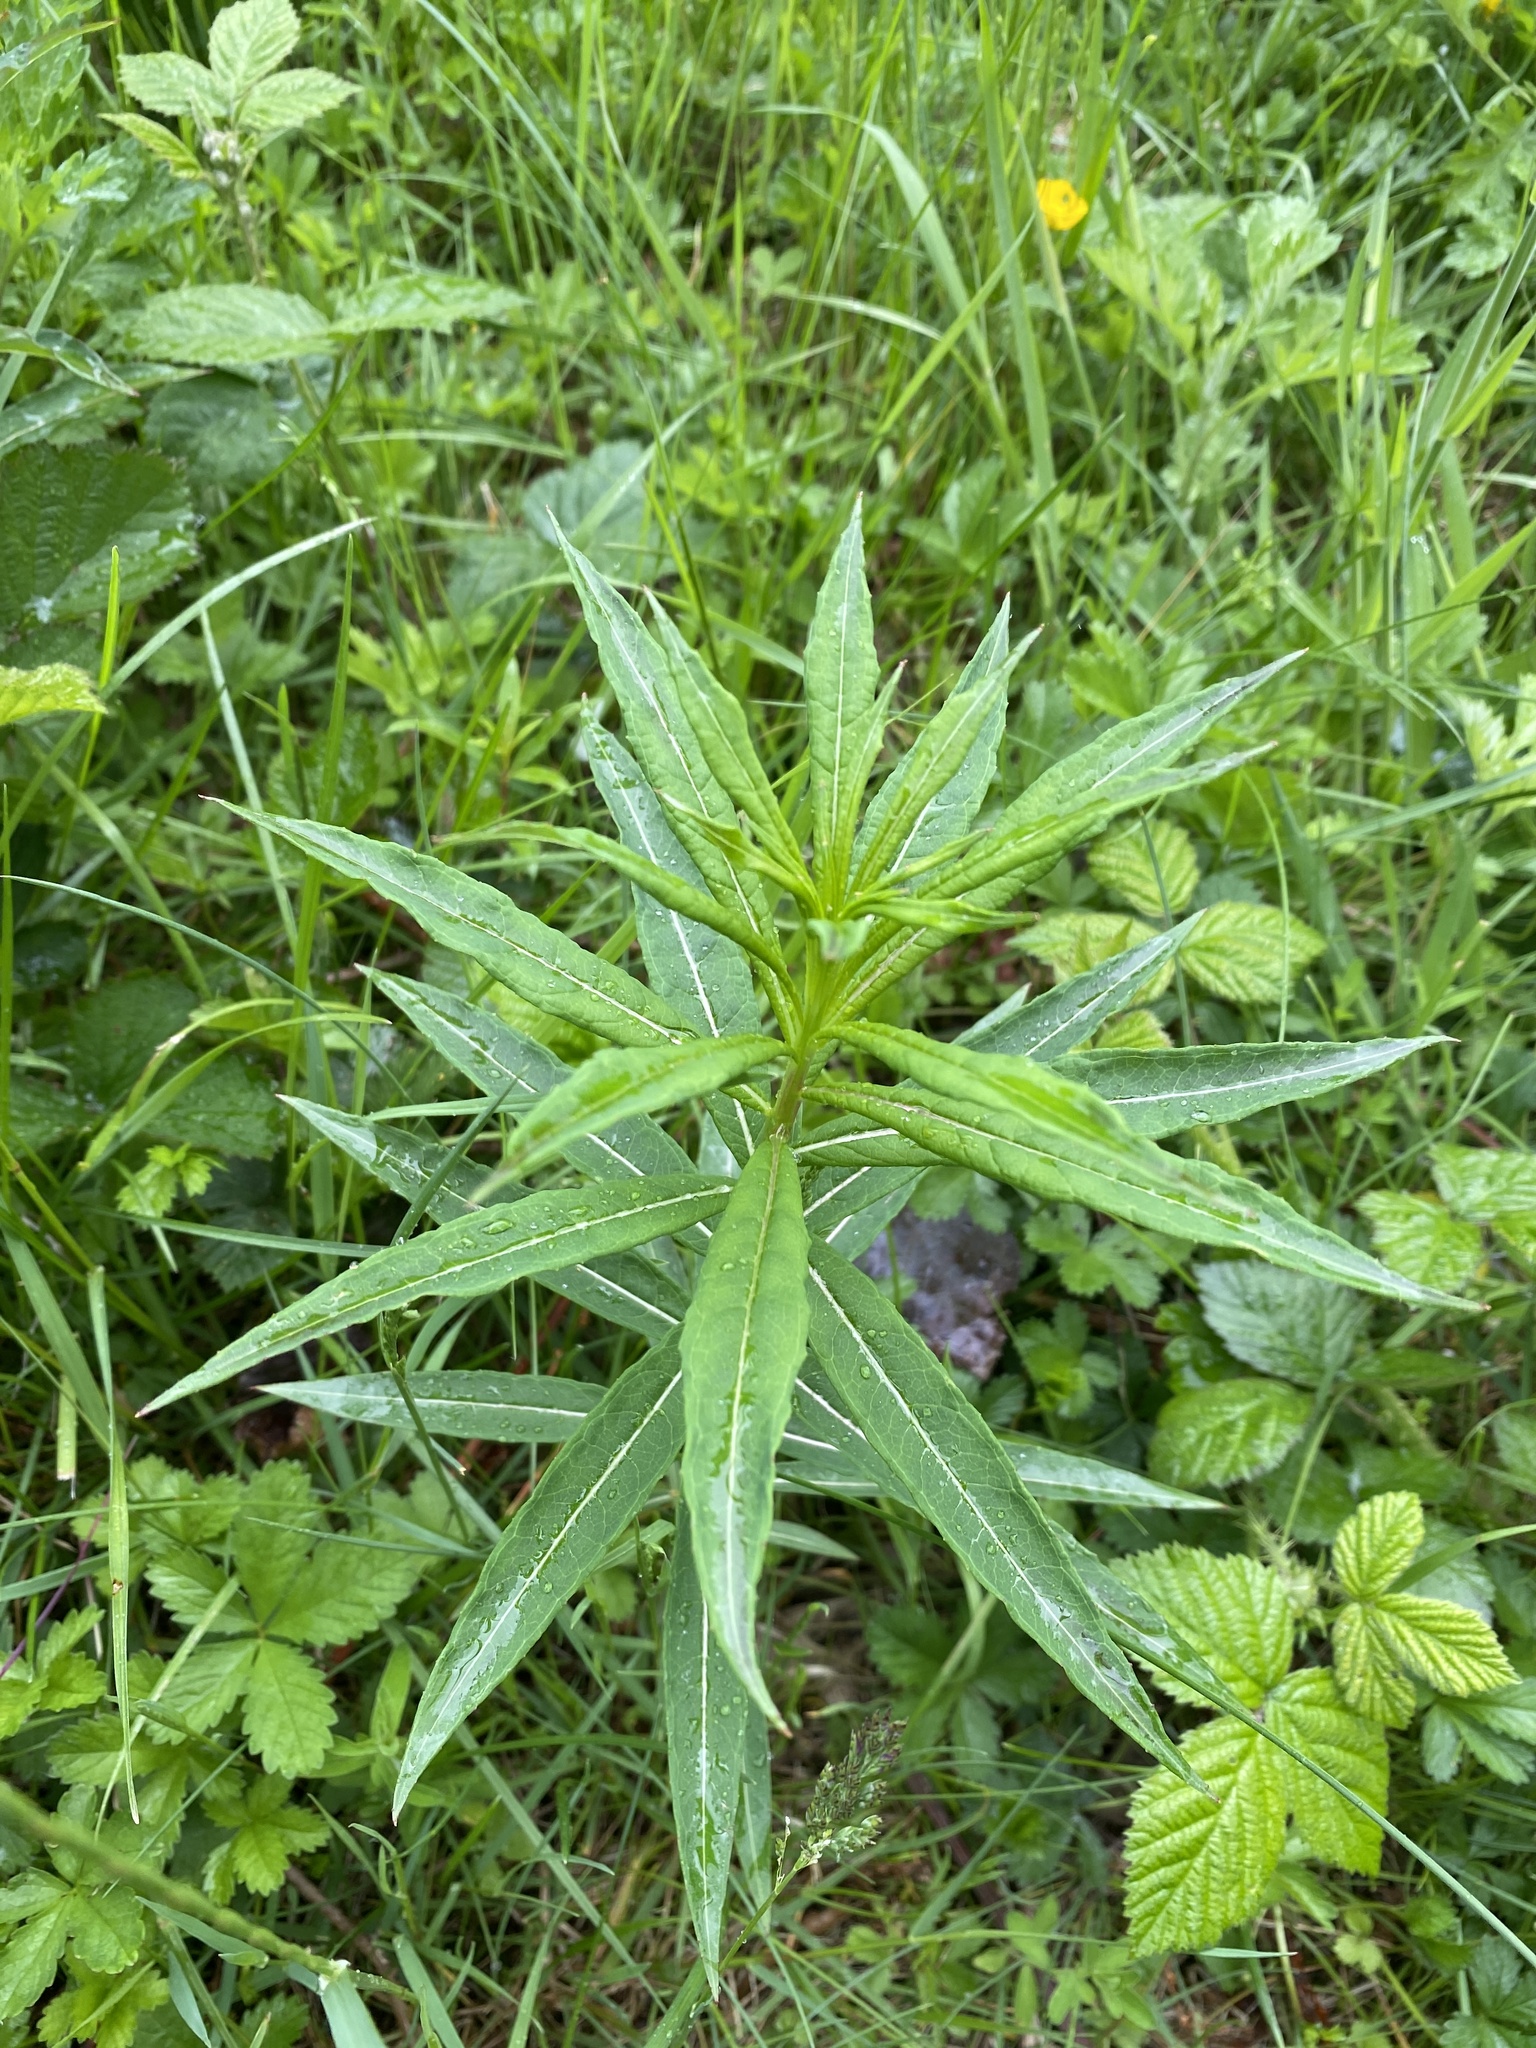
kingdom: Plantae
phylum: Tracheophyta
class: Magnoliopsida
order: Myrtales
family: Onagraceae
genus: Chamaenerion
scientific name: Chamaenerion angustifolium
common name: Fireweed
